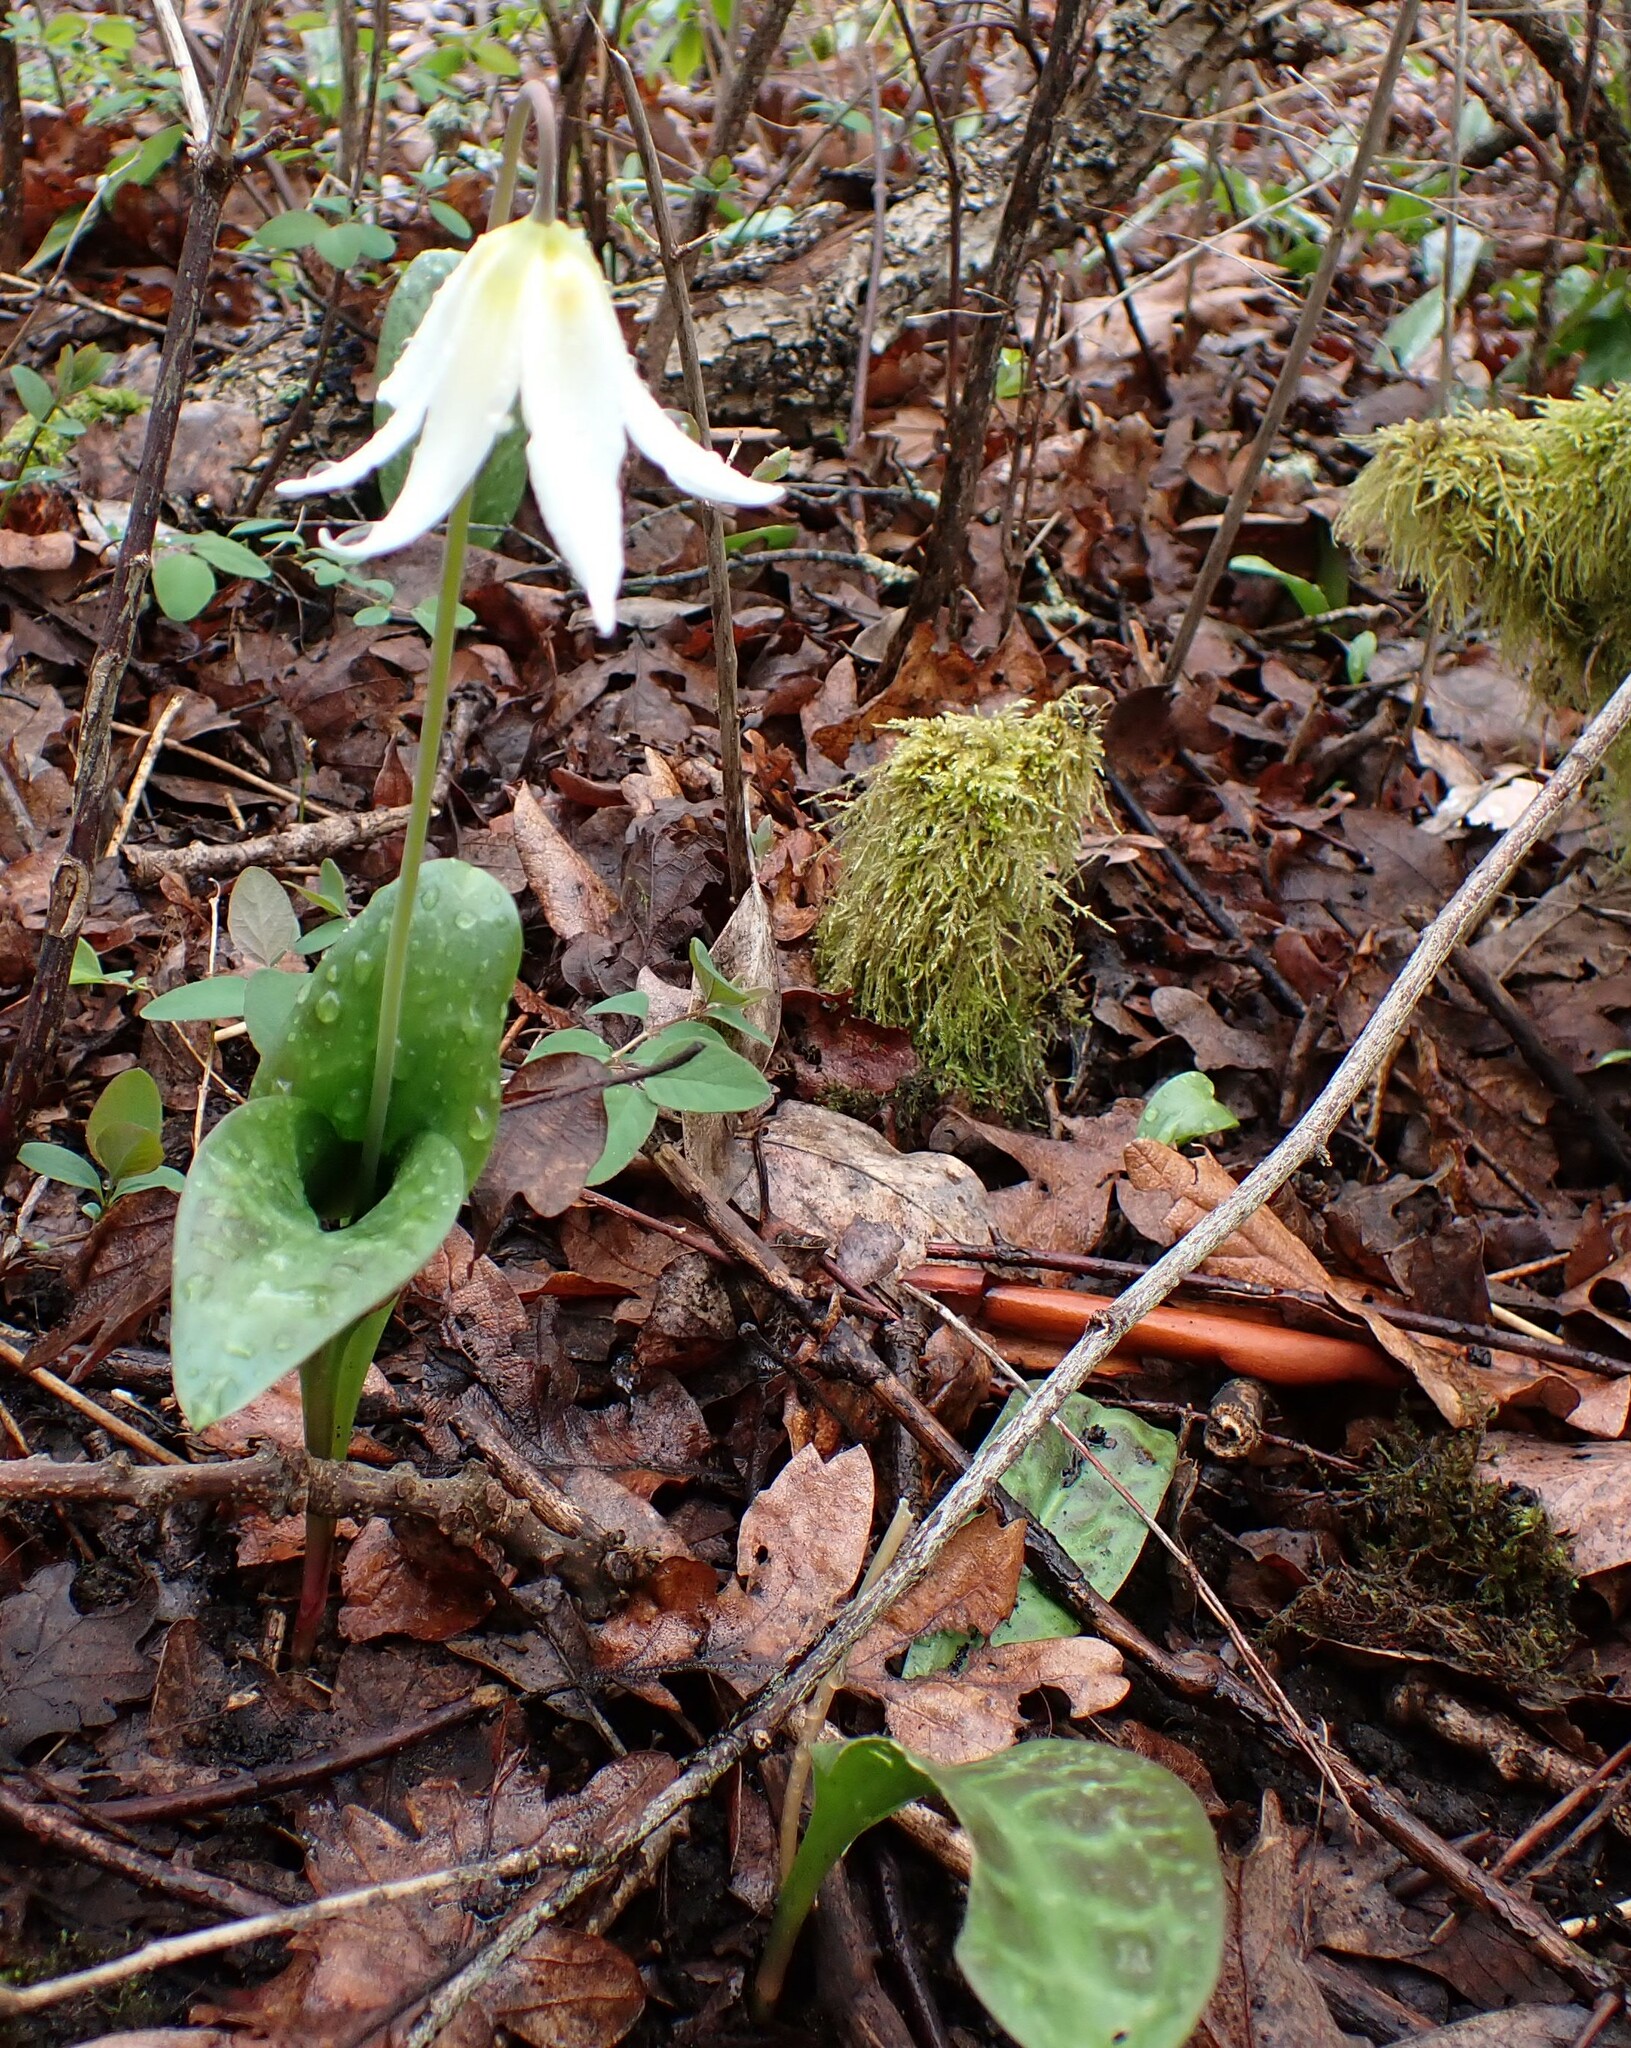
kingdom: Plantae
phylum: Tracheophyta
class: Liliopsida
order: Liliales
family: Liliaceae
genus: Erythronium
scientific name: Erythronium oregonum
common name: Giant adder's-tongue
